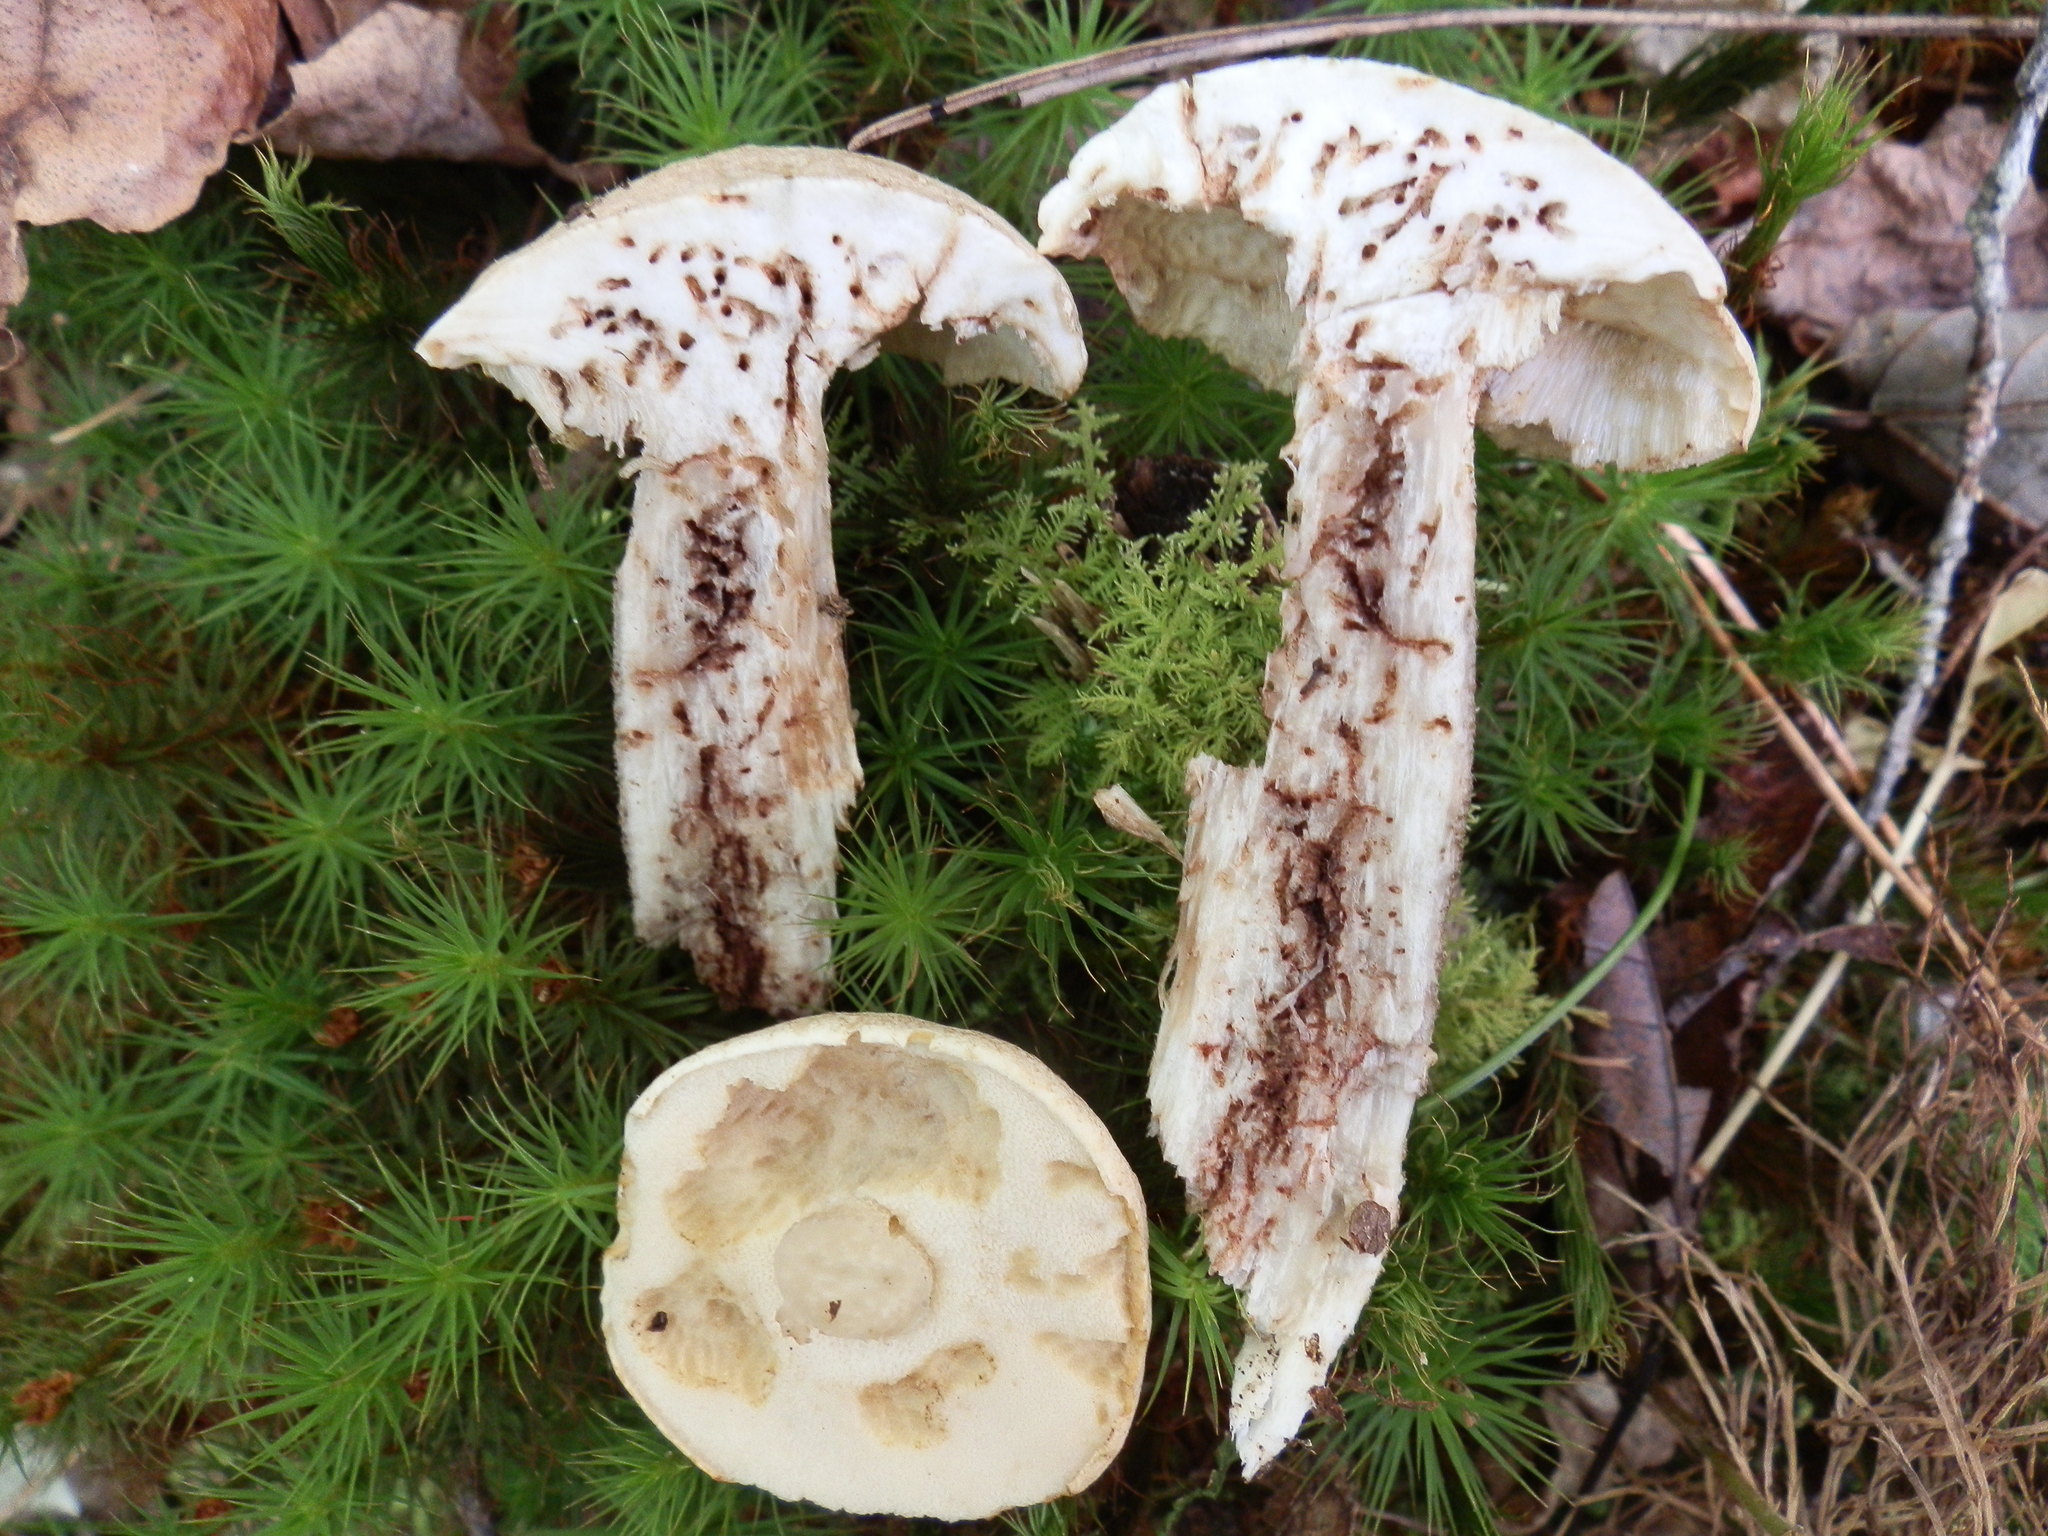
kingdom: Fungi
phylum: Basidiomycota
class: Agaricomycetes
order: Boletales
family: Boletaceae
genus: Leccinum
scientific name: Leccinum holopus
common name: Ghost bolete
